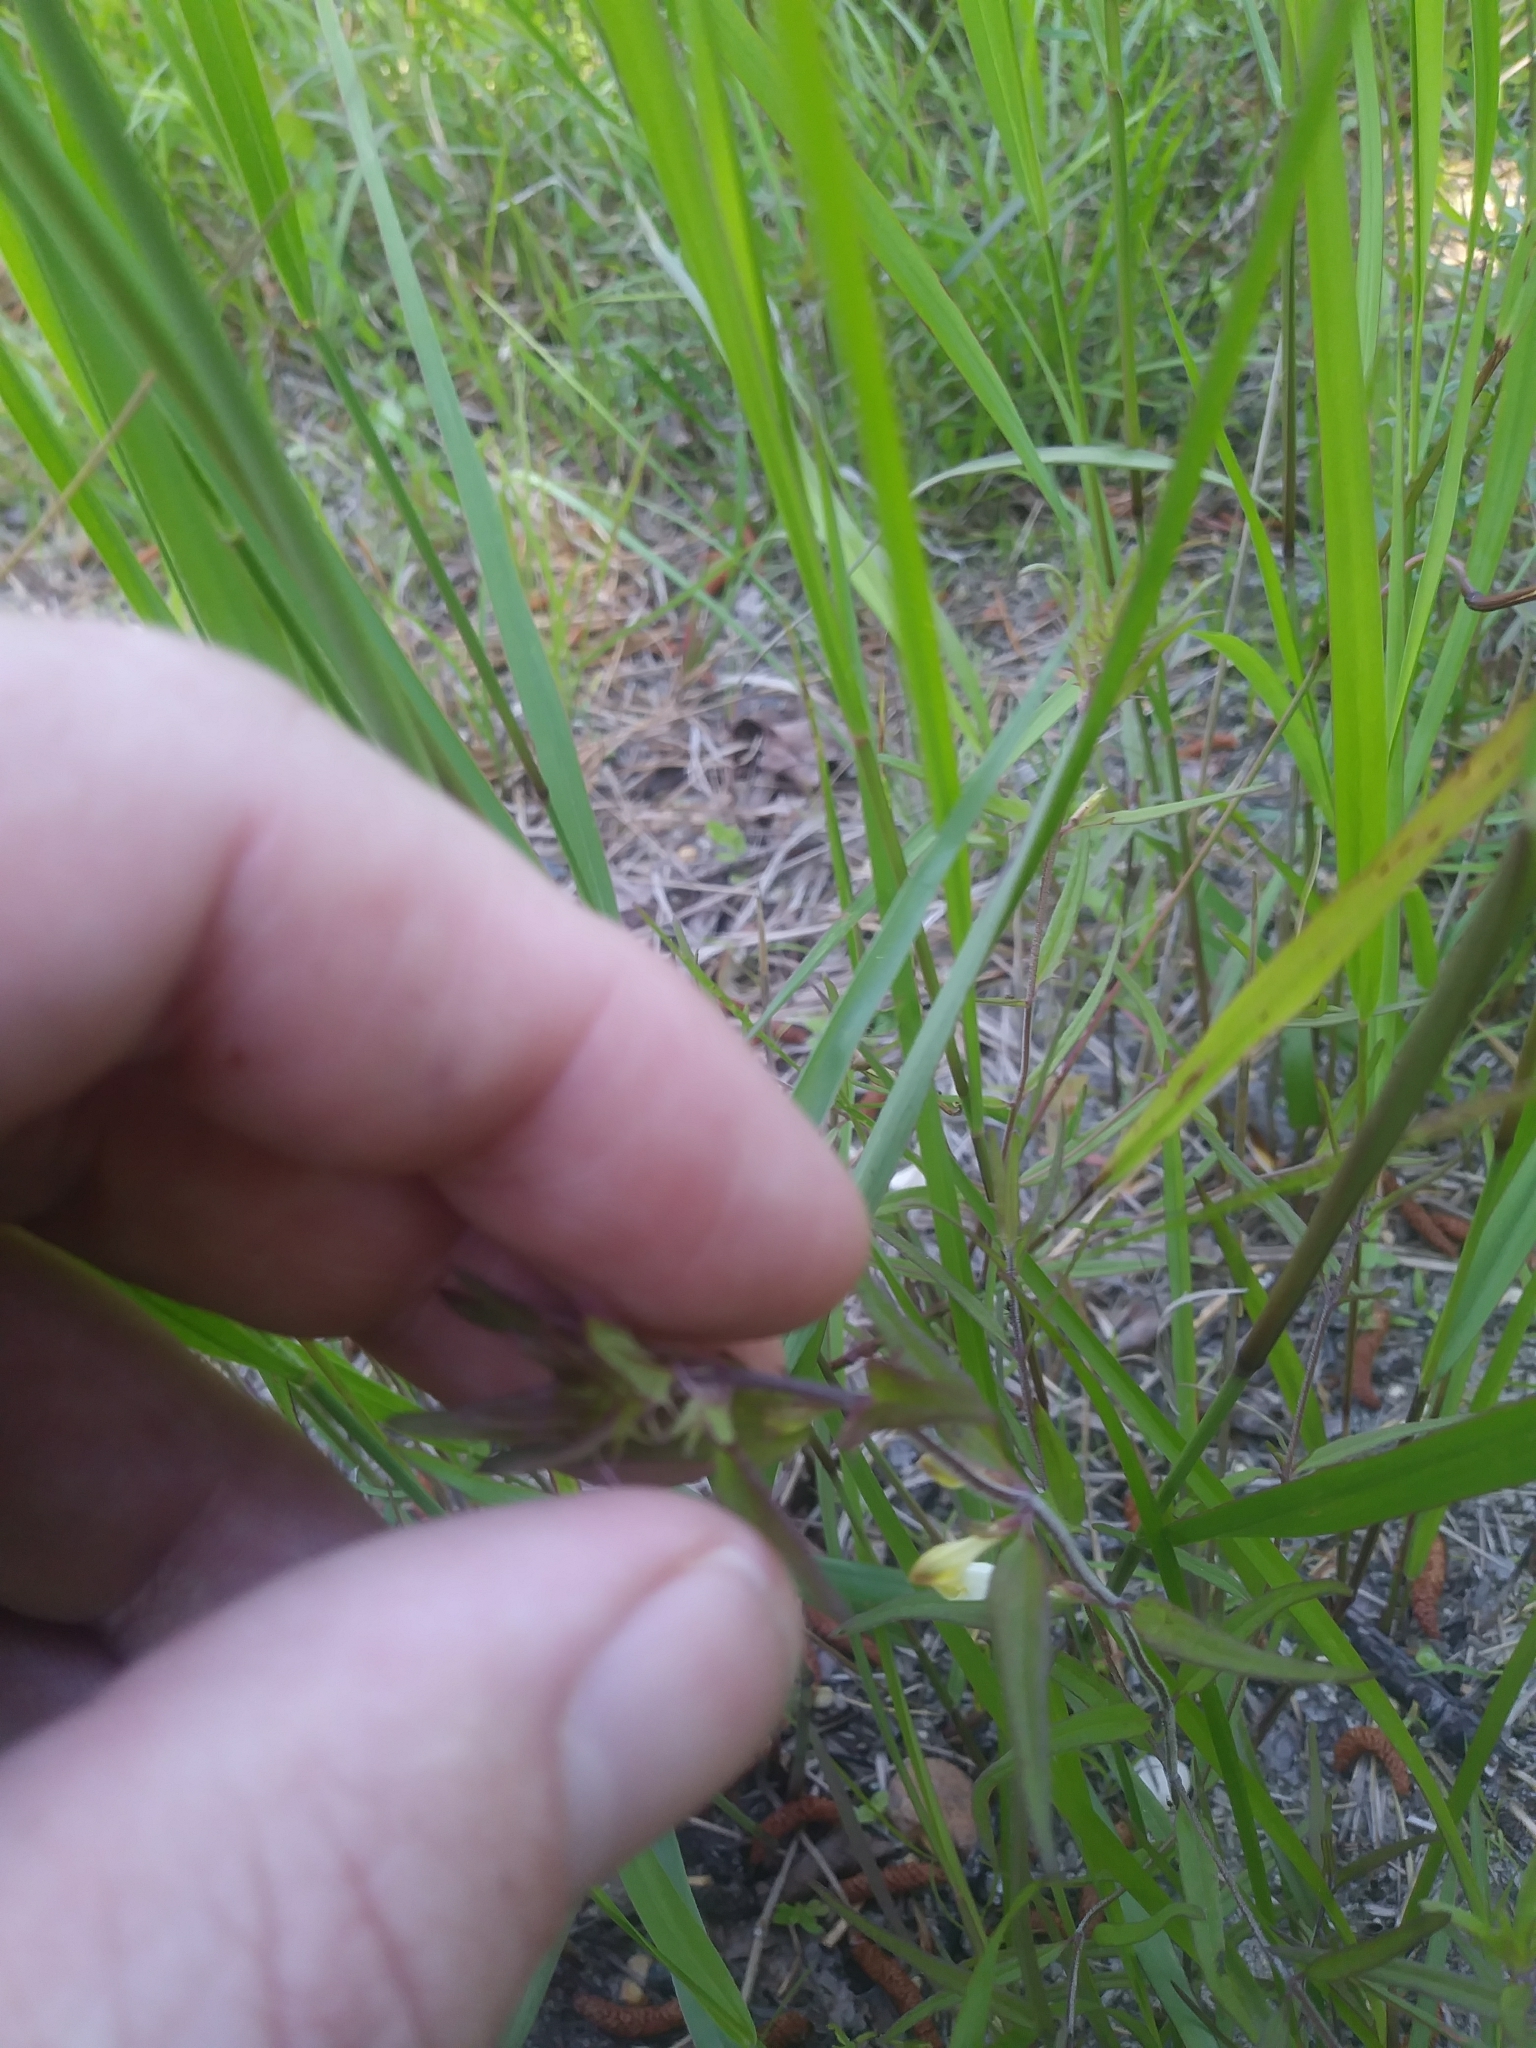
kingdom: Plantae
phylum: Tracheophyta
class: Magnoliopsida
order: Lamiales
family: Orobanchaceae
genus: Melampyrum
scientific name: Melampyrum lineare
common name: American cow-wheat
